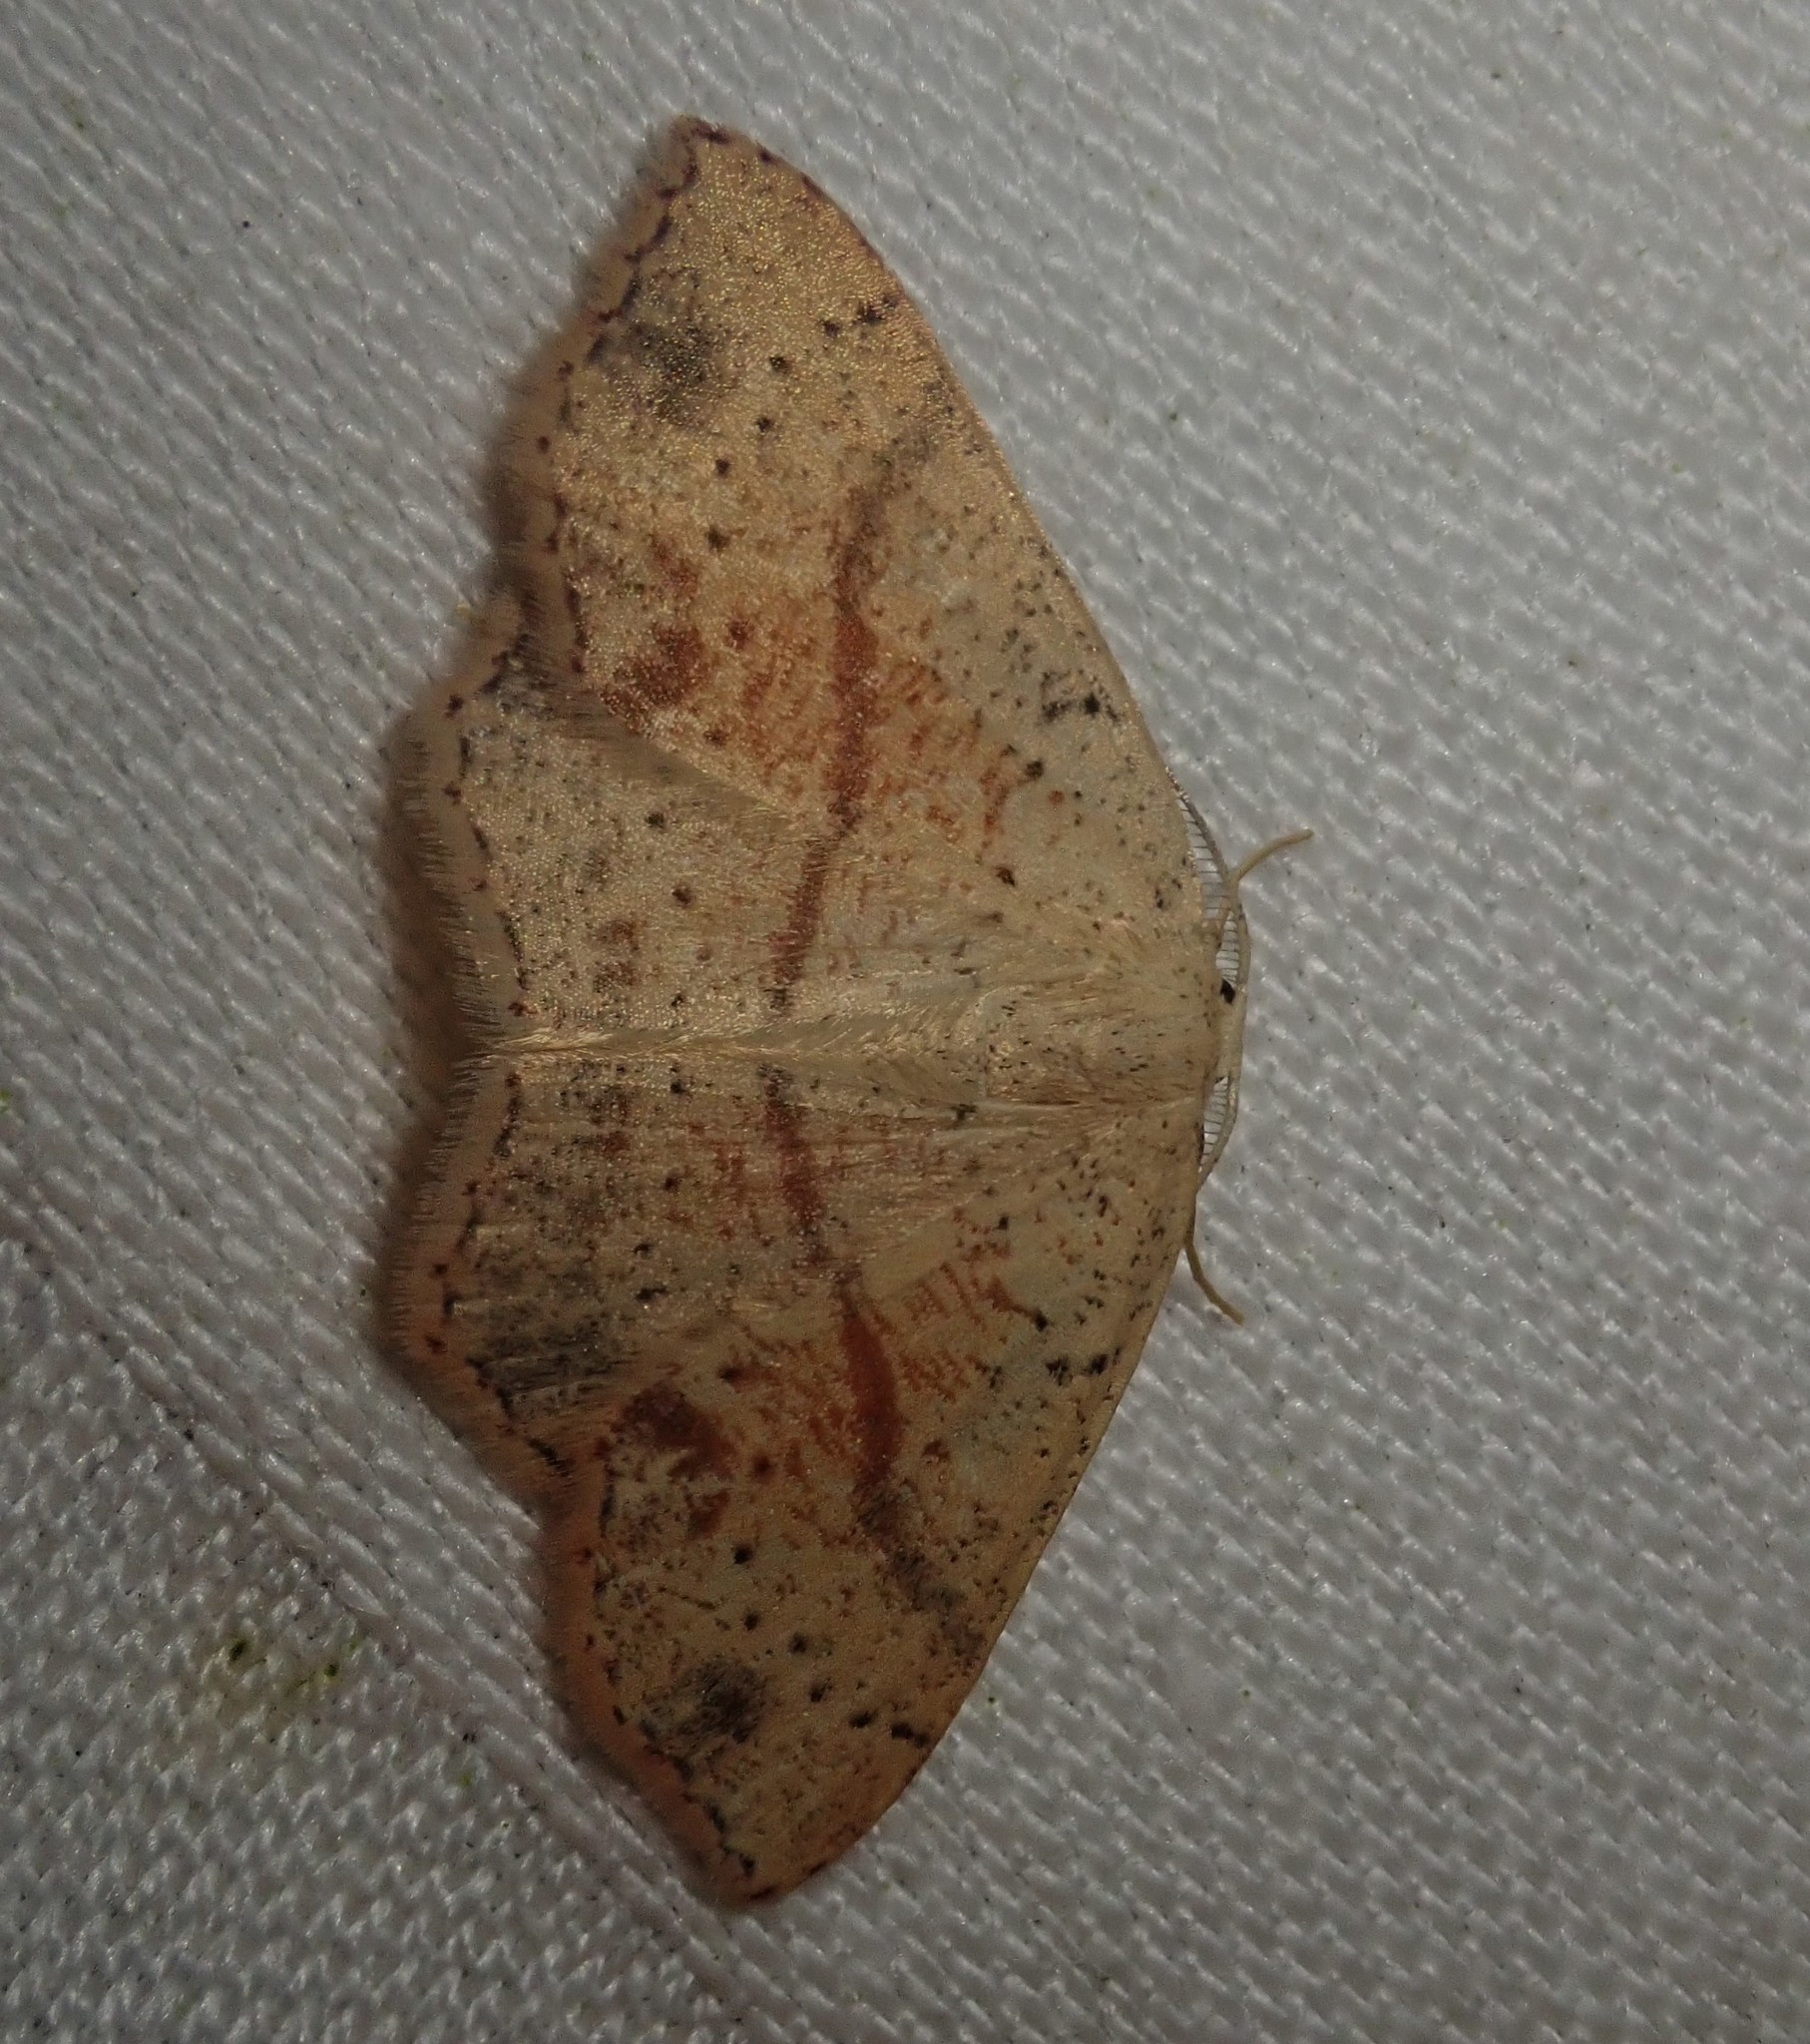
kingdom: Animalia
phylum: Arthropoda
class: Insecta
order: Lepidoptera
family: Geometridae
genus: Cyclophora
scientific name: Cyclophora punctaria
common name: Maiden's blush
